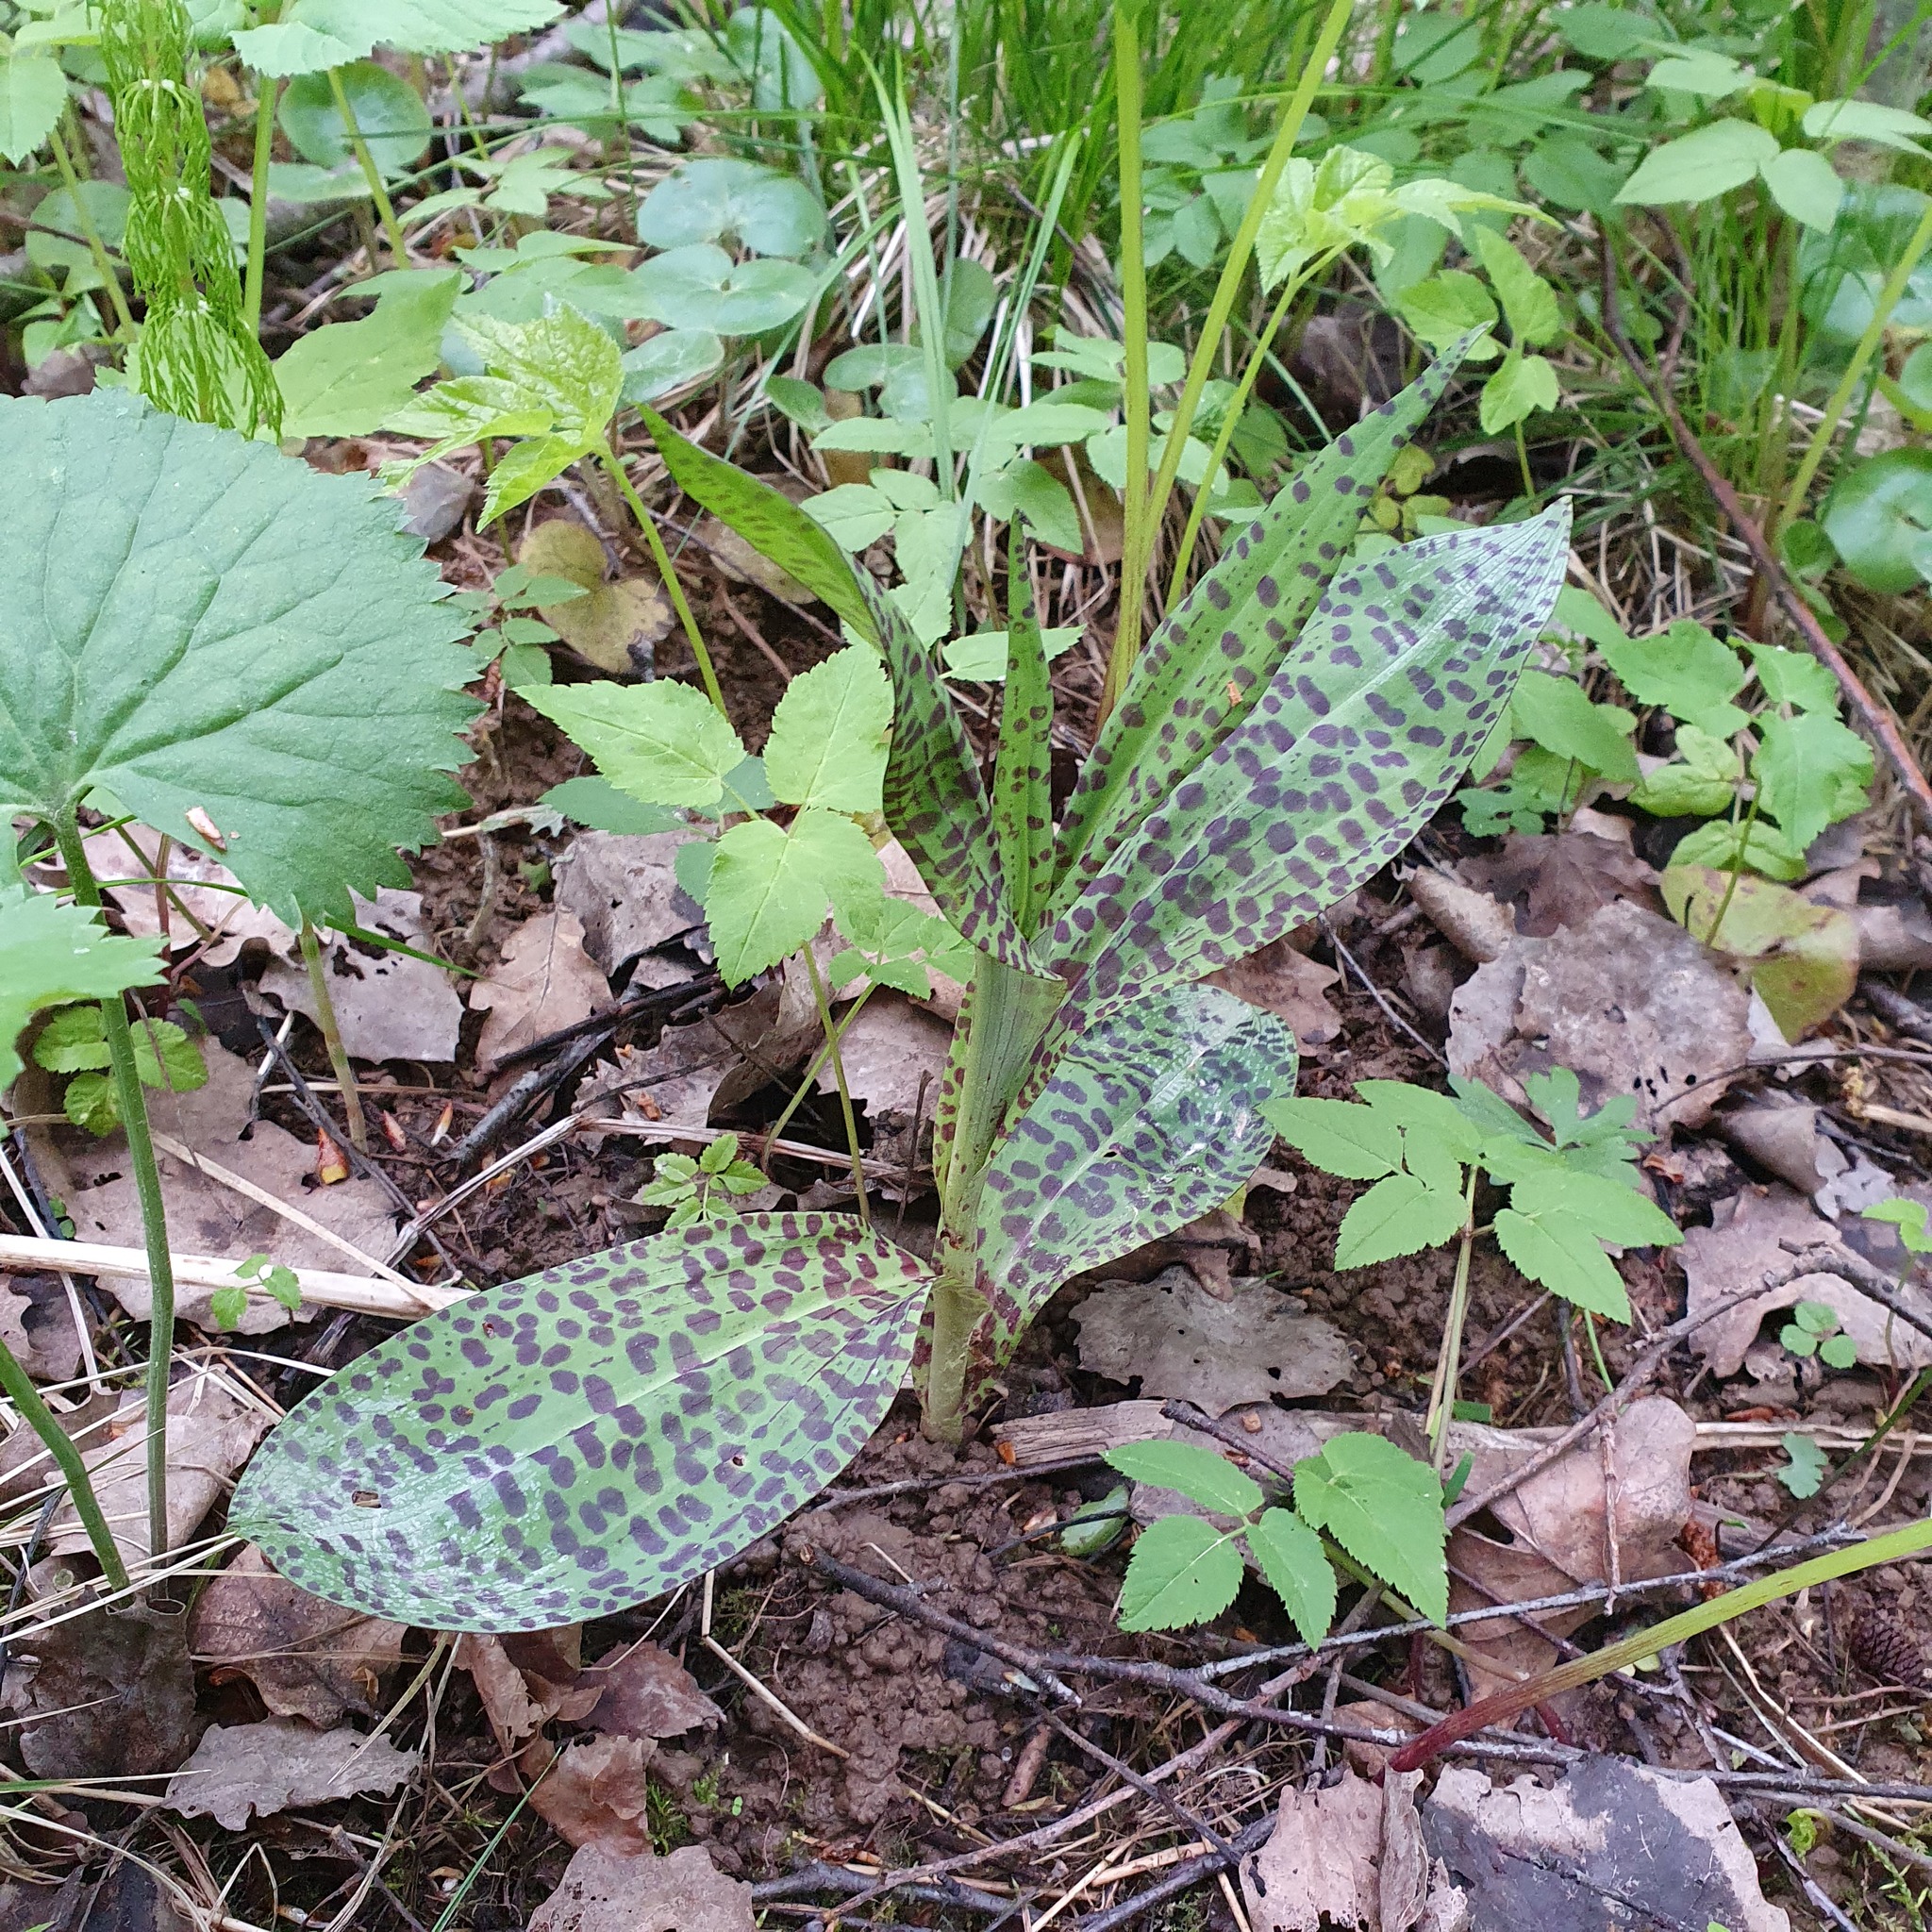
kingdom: Plantae
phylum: Tracheophyta
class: Liliopsida
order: Asparagales
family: Orchidaceae
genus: Dactylorhiza
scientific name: Dactylorhiza majalis
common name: Marsh orchid
